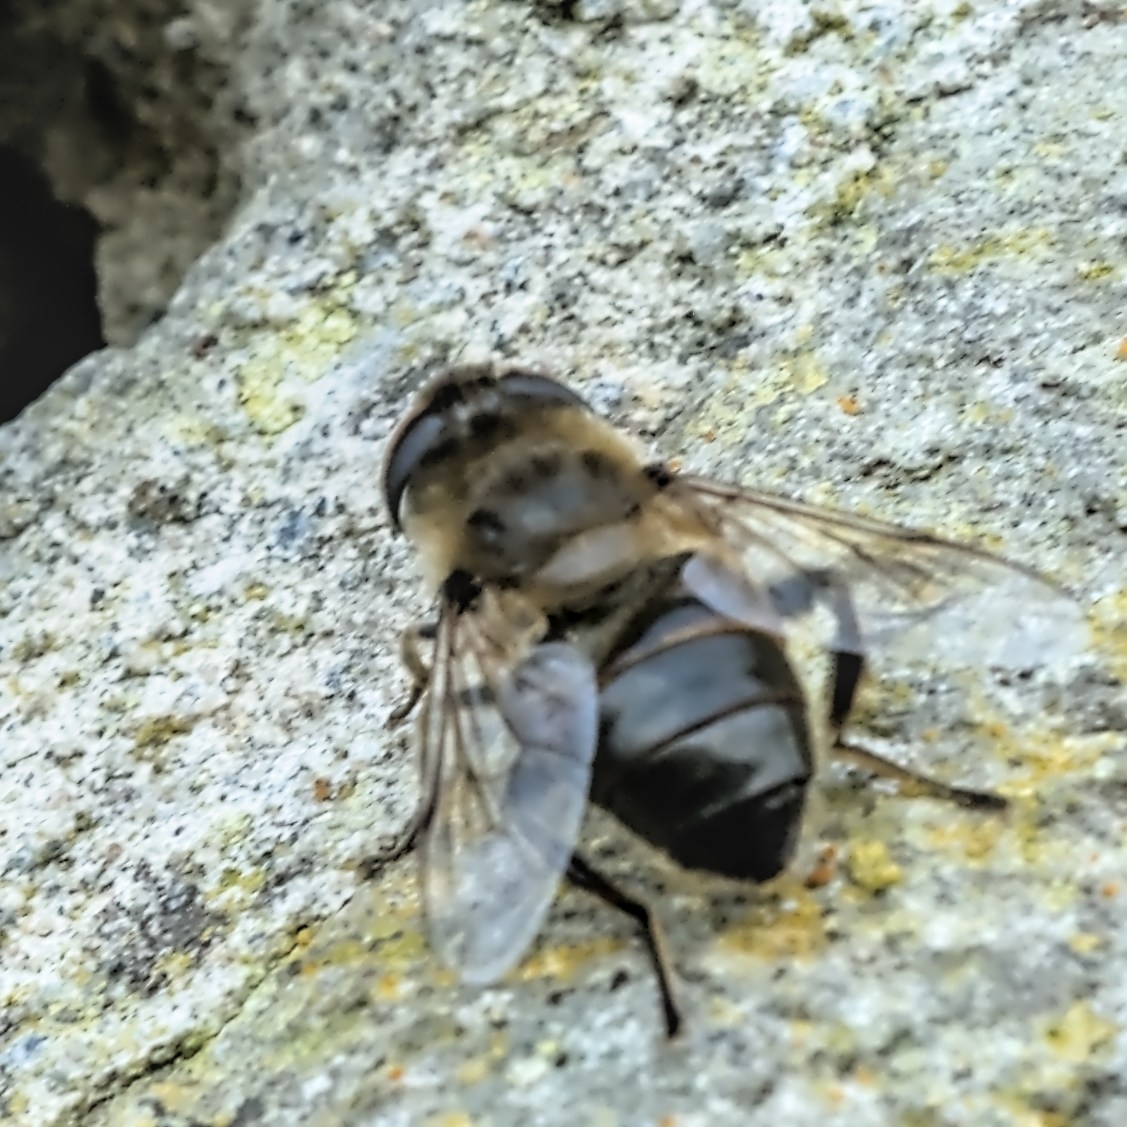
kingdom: Animalia
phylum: Arthropoda
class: Insecta
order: Diptera
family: Syrphidae
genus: Eristalis
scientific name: Eristalis tenax
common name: Drone fly
